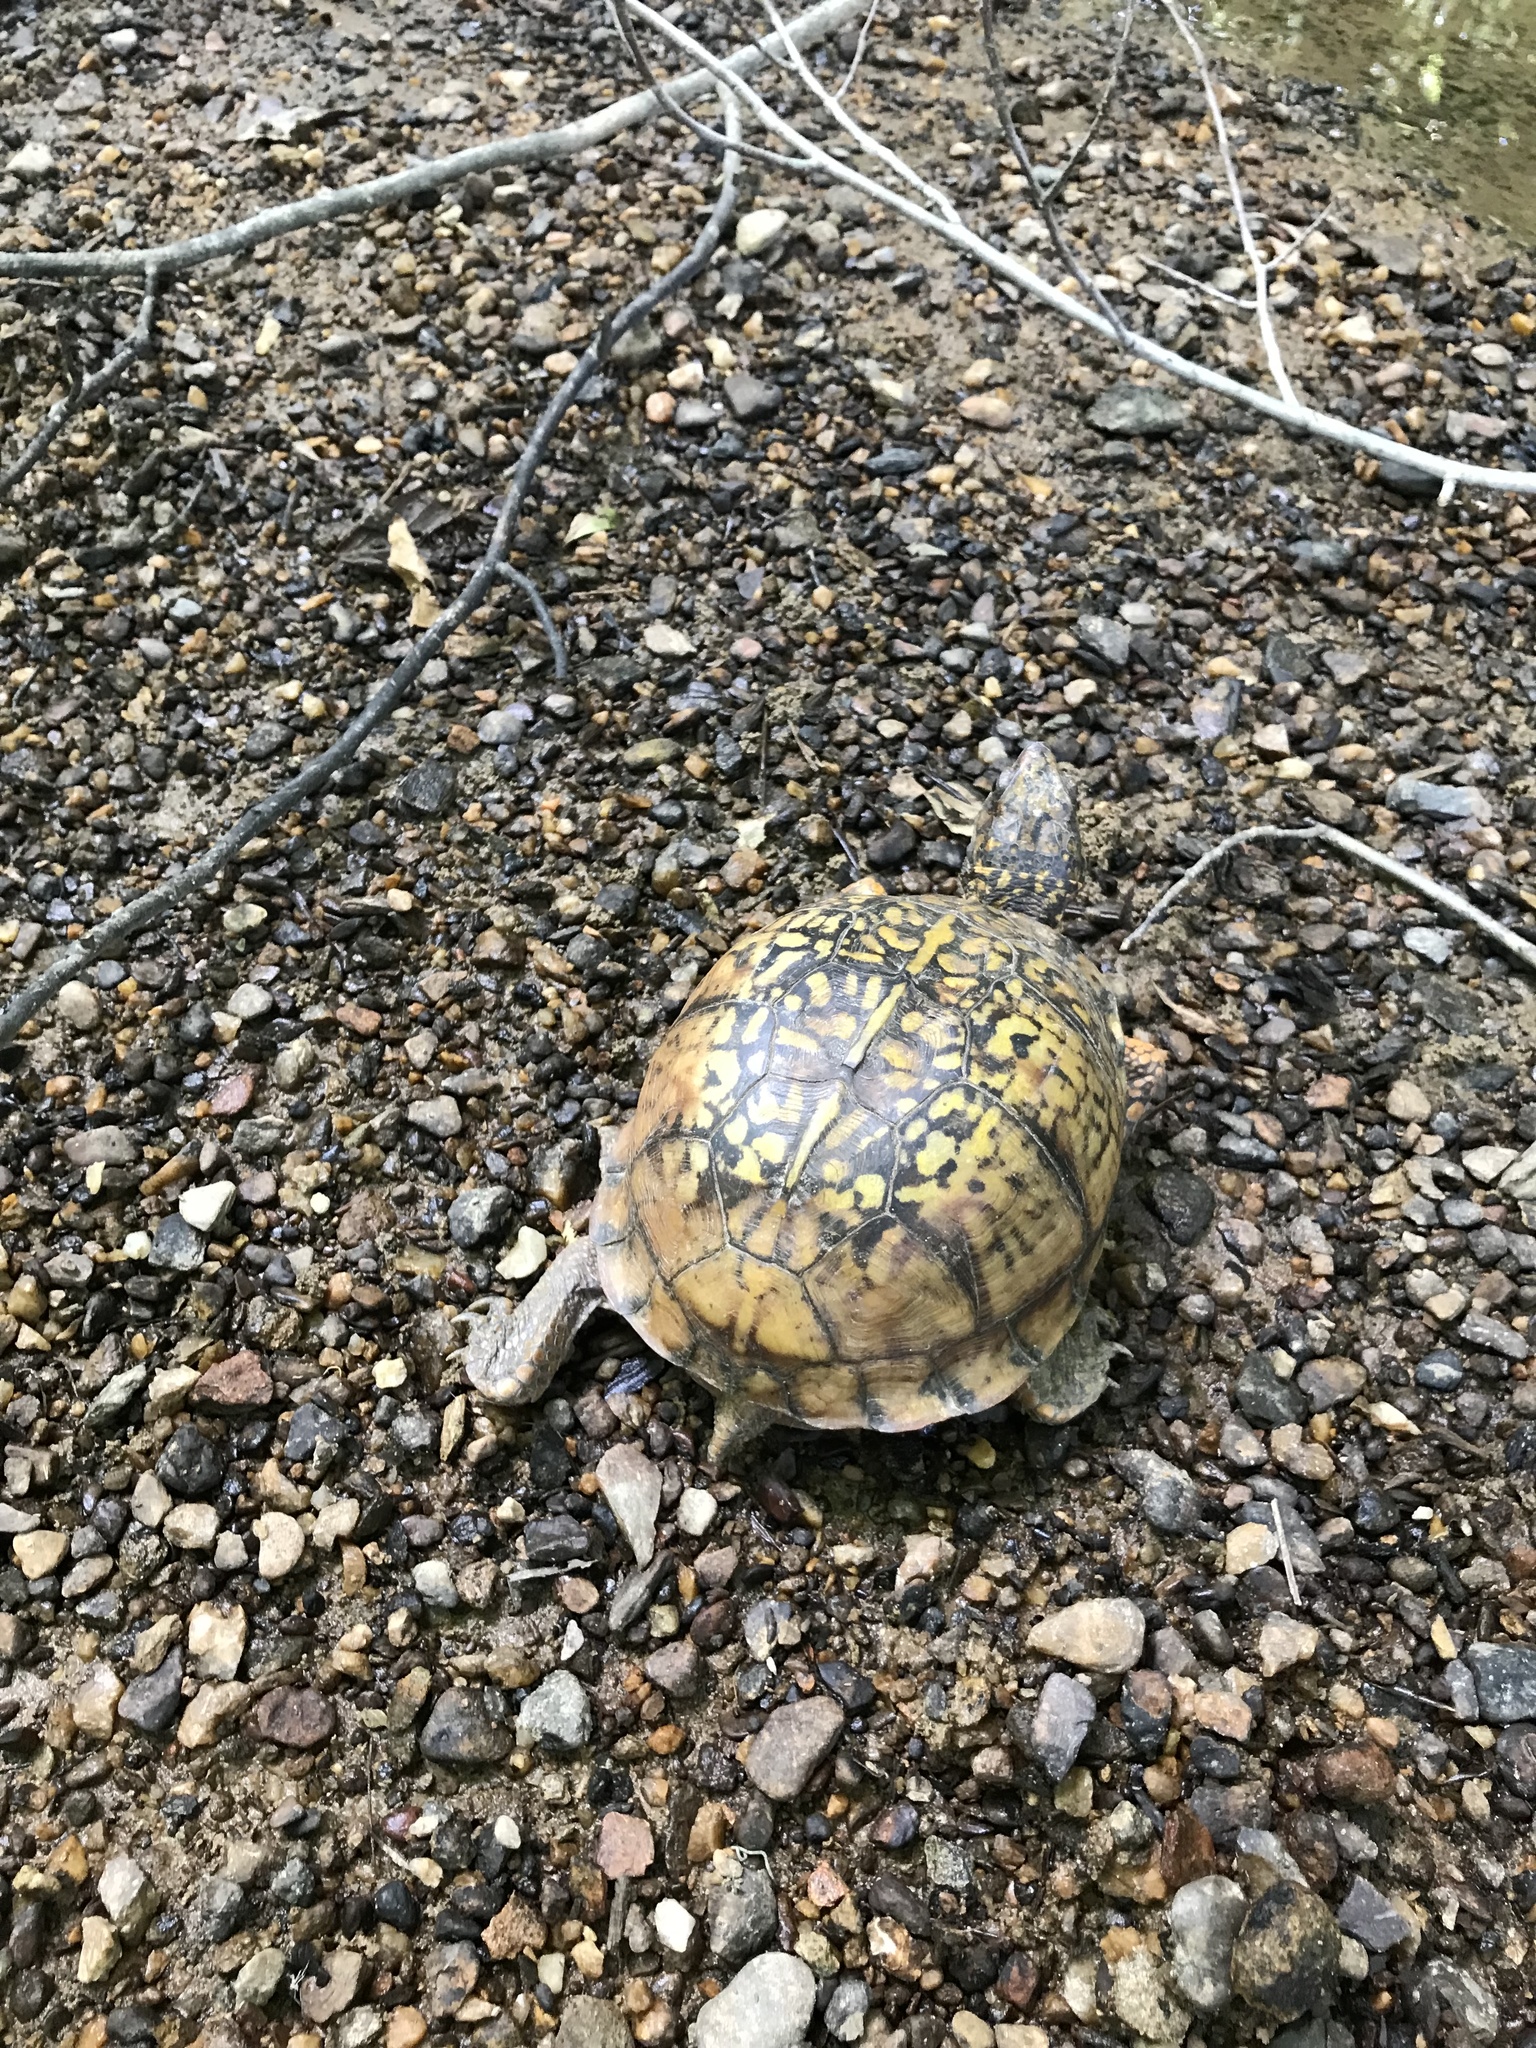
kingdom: Animalia
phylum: Chordata
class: Testudines
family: Emydidae
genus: Terrapene
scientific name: Terrapene carolina
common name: Common box turtle
